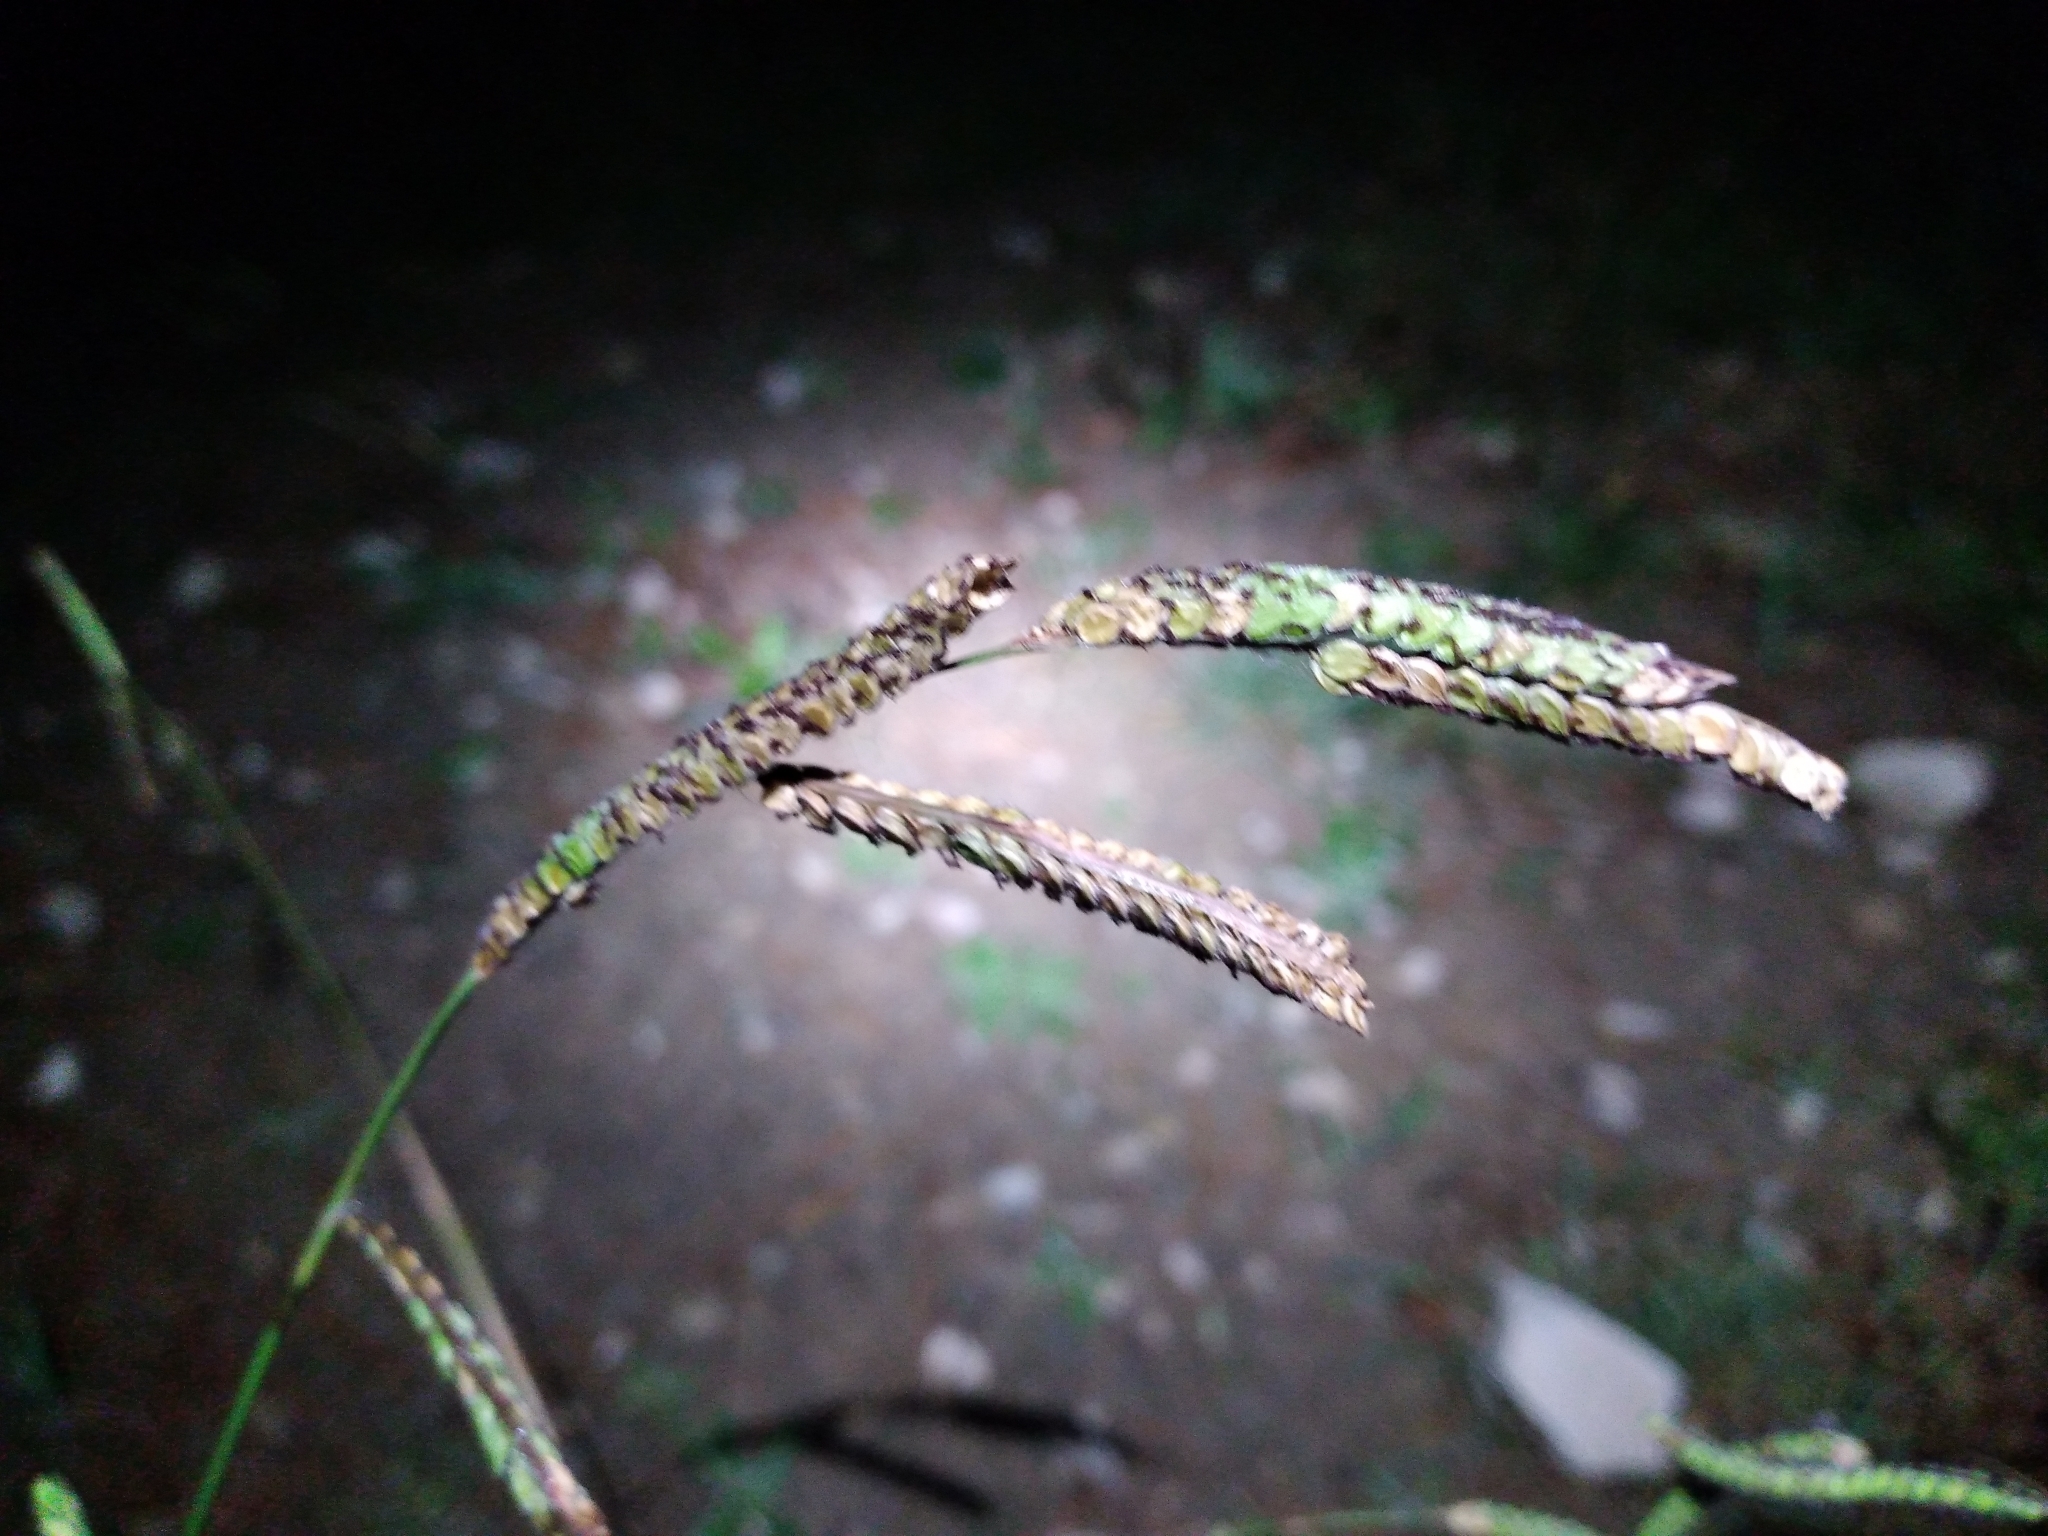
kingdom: Plantae
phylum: Tracheophyta
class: Liliopsida
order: Poales
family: Poaceae
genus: Paspalum
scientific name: Paspalum dilatatum
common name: Dallisgrass
